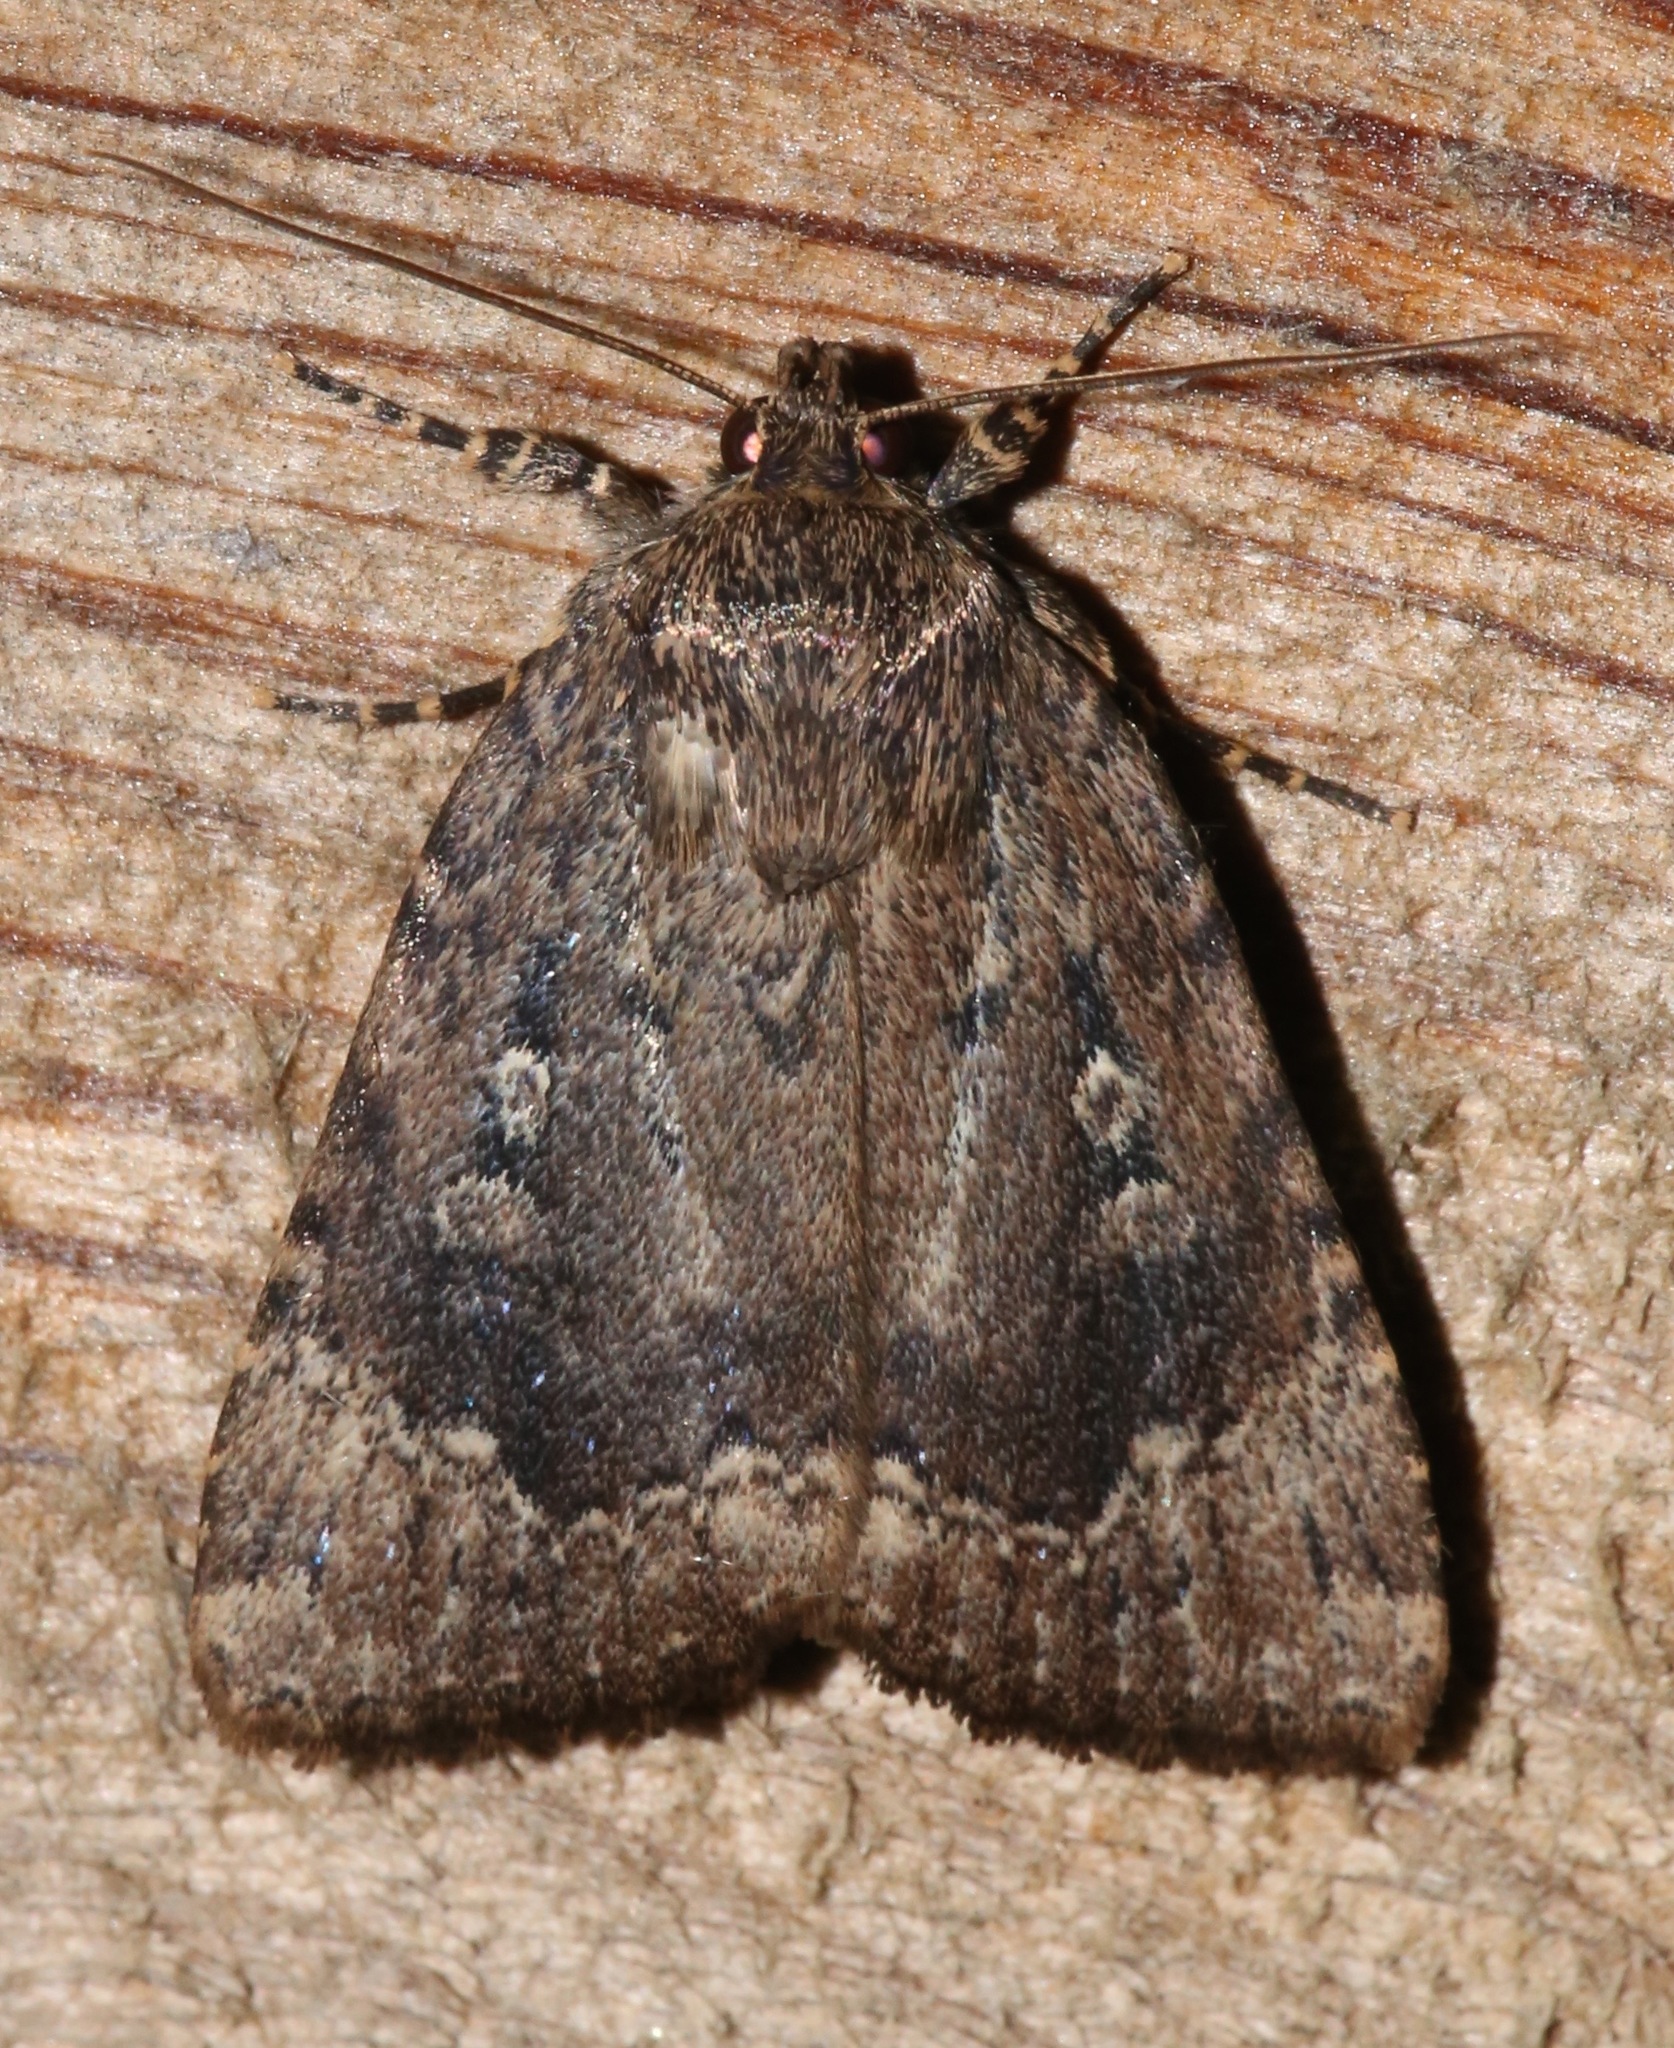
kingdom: Animalia
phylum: Arthropoda
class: Insecta
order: Lepidoptera
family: Noctuidae
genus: Amphipyra
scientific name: Amphipyra pyramidoides
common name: American copper underwing
